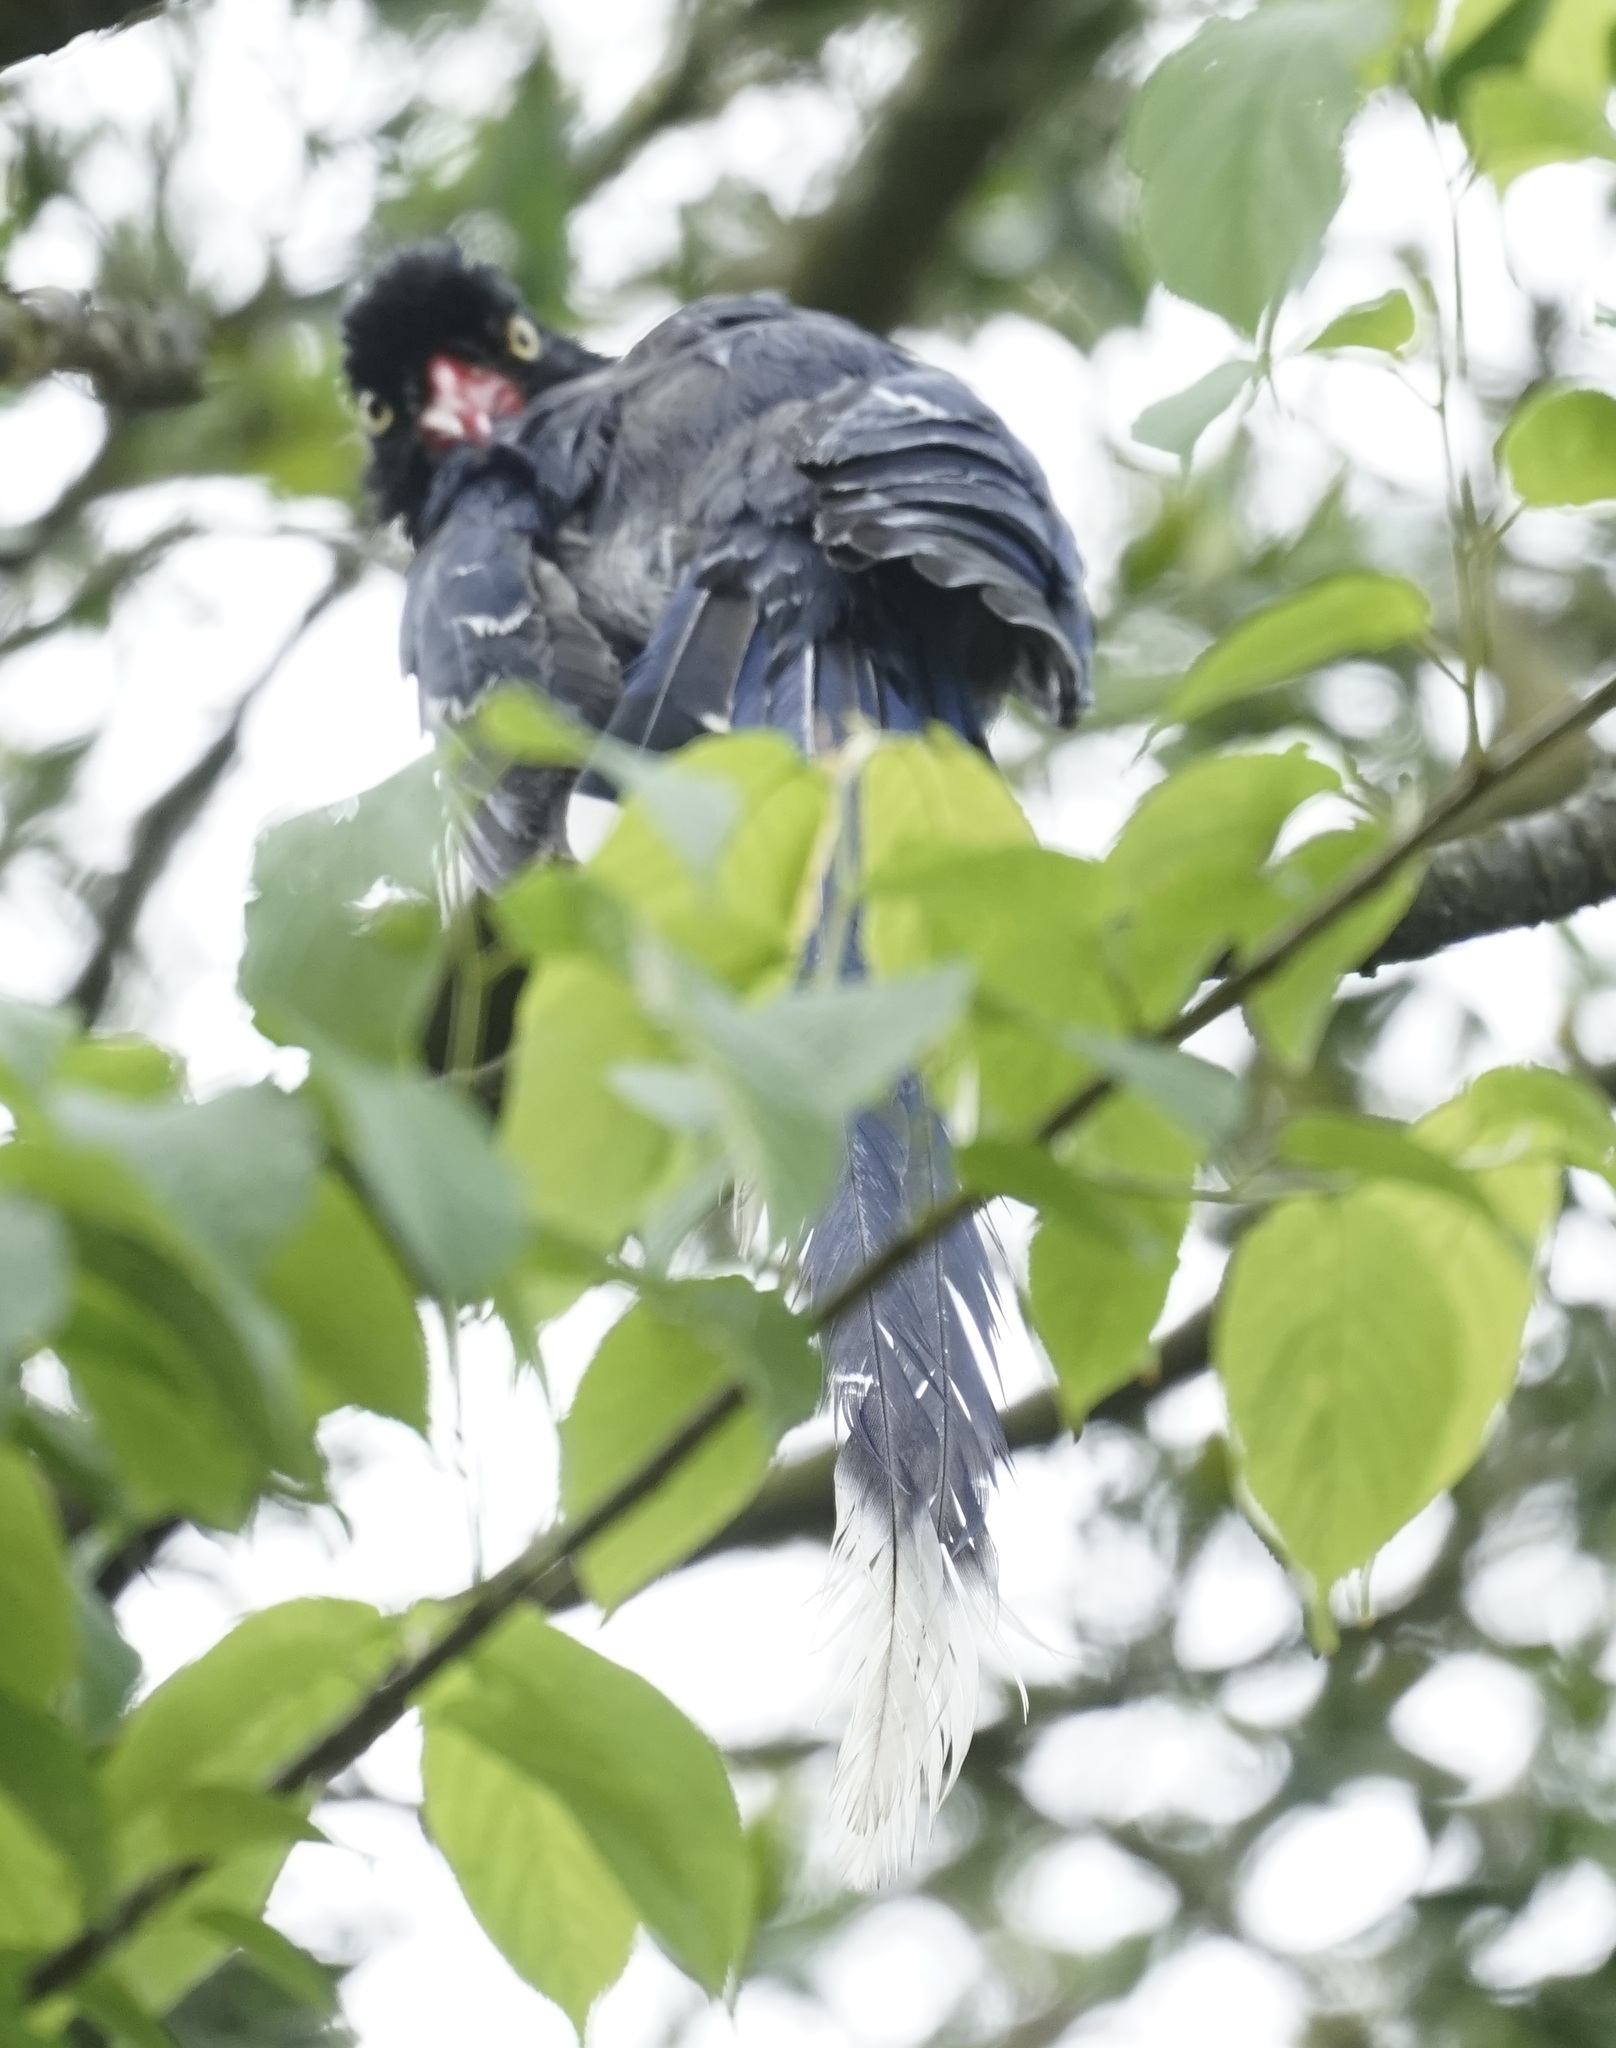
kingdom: Animalia
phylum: Chordata
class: Aves
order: Passeriformes
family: Corvidae
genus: Urocissa
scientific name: Urocissa caerulea
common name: Taiwan blue magpie
